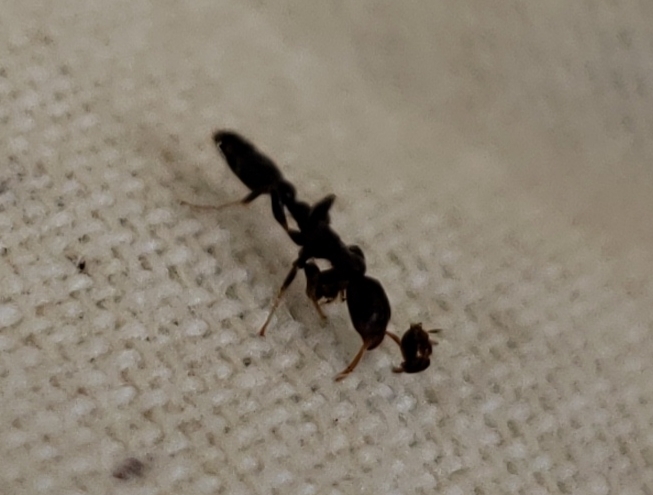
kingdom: Animalia
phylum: Arthropoda
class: Insecta
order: Hymenoptera
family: Formicidae
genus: Pseudomyrmex
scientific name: Pseudomyrmex ejectus
